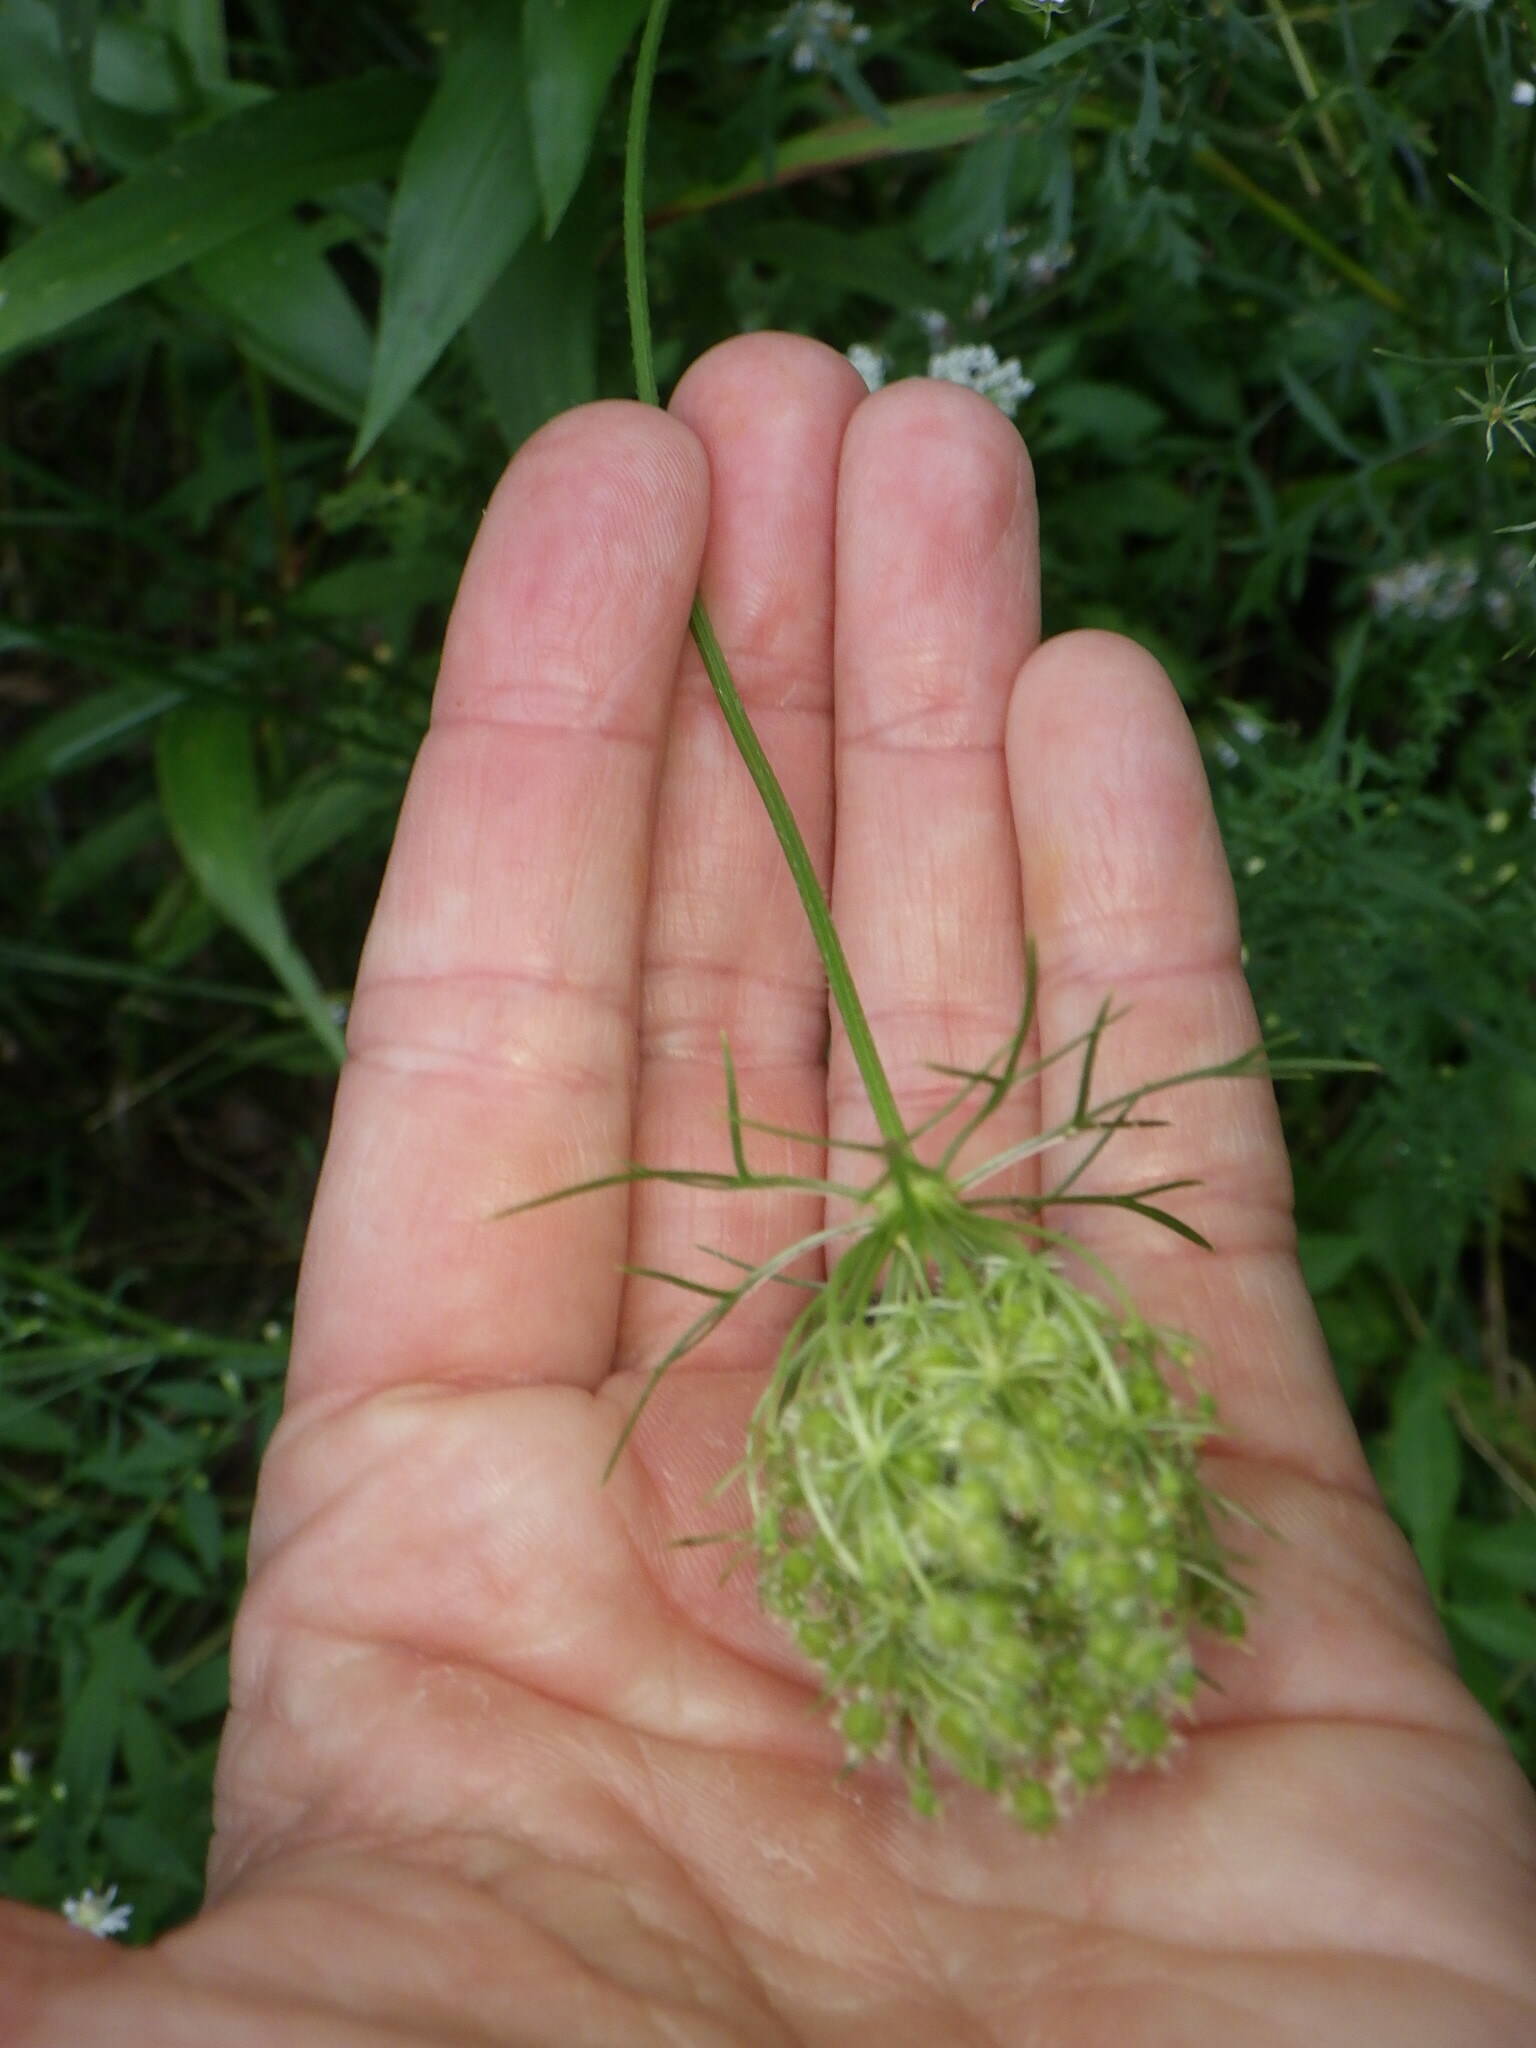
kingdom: Plantae
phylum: Tracheophyta
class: Magnoliopsida
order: Apiales
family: Apiaceae
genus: Daucus
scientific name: Daucus carota
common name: Wild carrot
